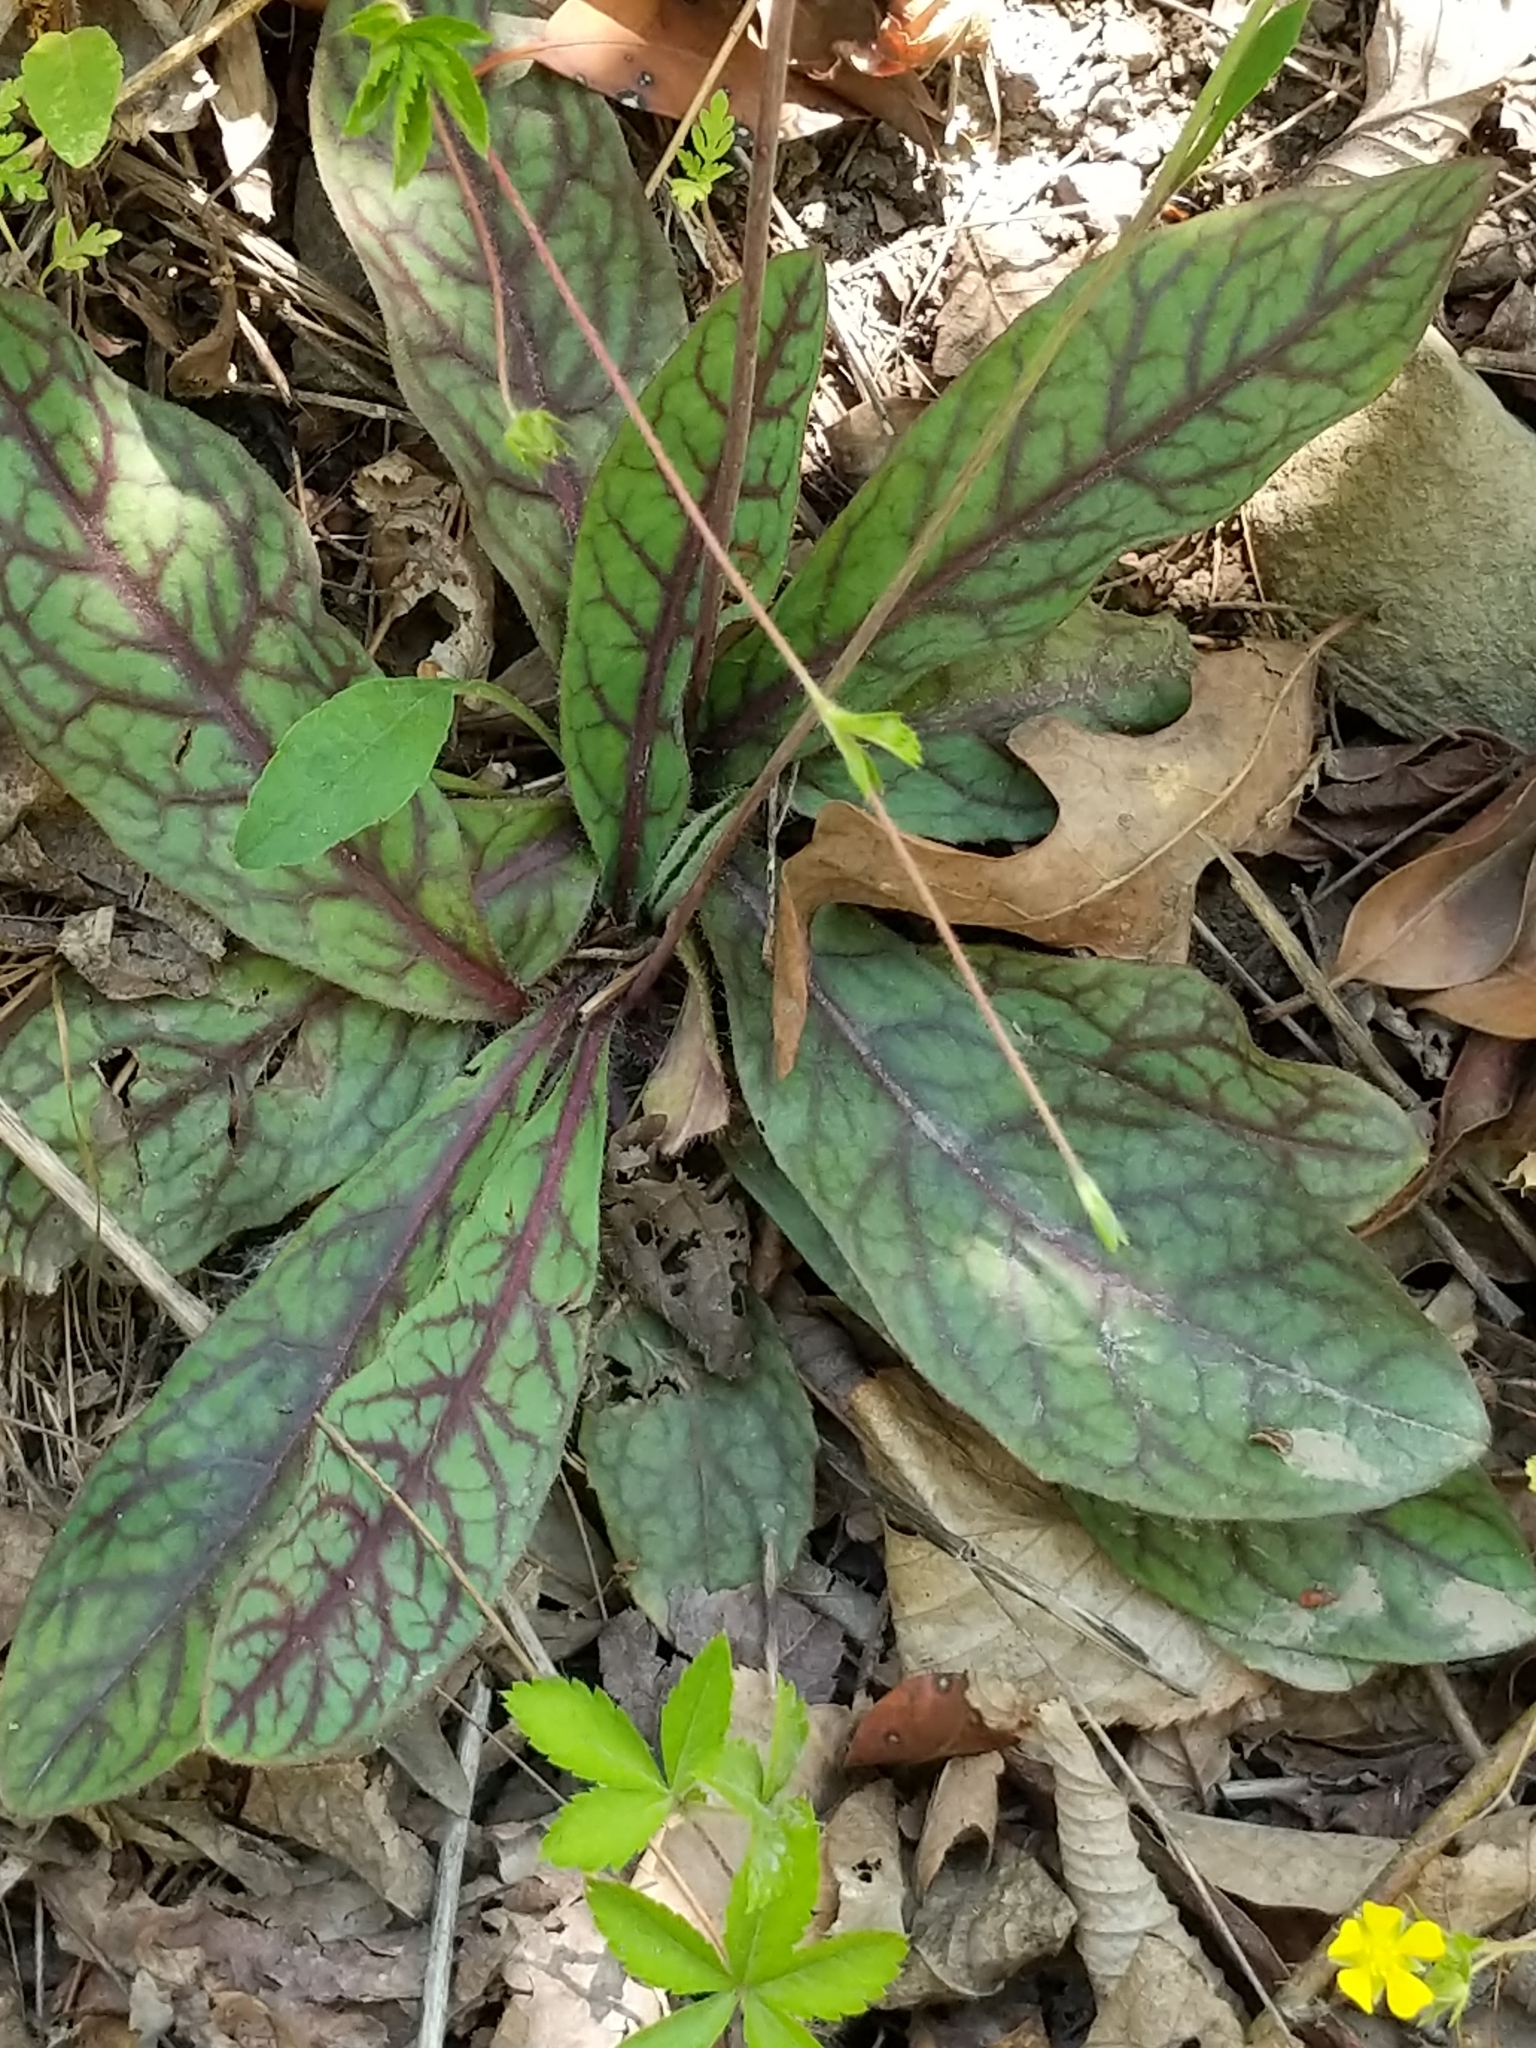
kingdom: Plantae
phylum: Tracheophyta
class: Magnoliopsida
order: Asterales
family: Asteraceae
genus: Hieracium
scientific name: Hieracium venosum
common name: Rattlesnake hawkweed
